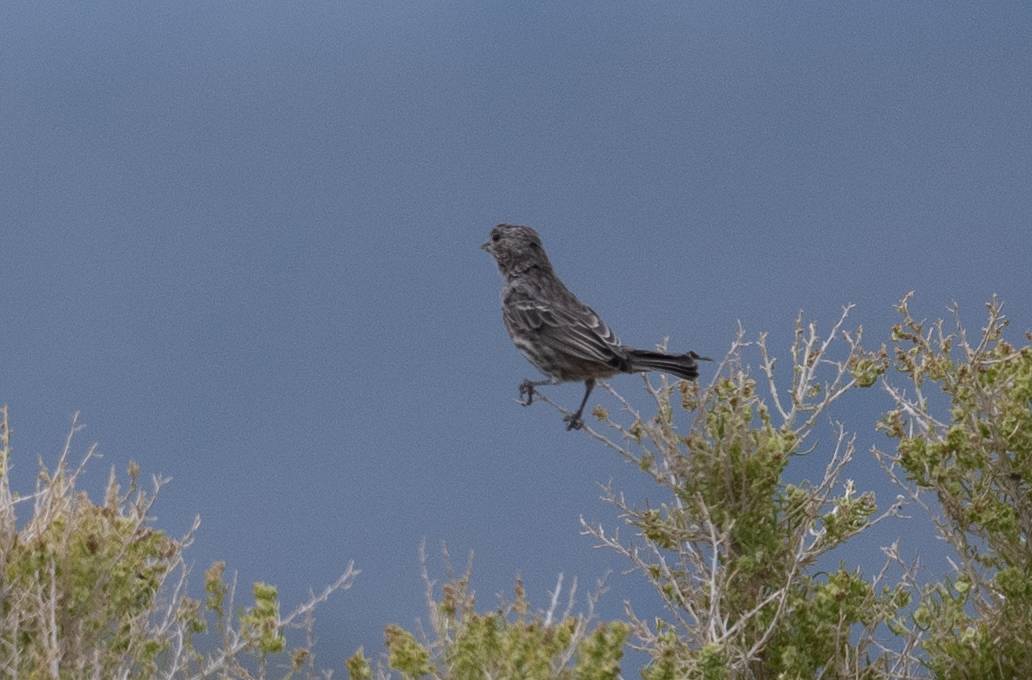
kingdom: Animalia
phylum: Chordata
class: Aves
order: Passeriformes
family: Fringillidae
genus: Haemorhous
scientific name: Haemorhous mexicanus
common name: House finch
